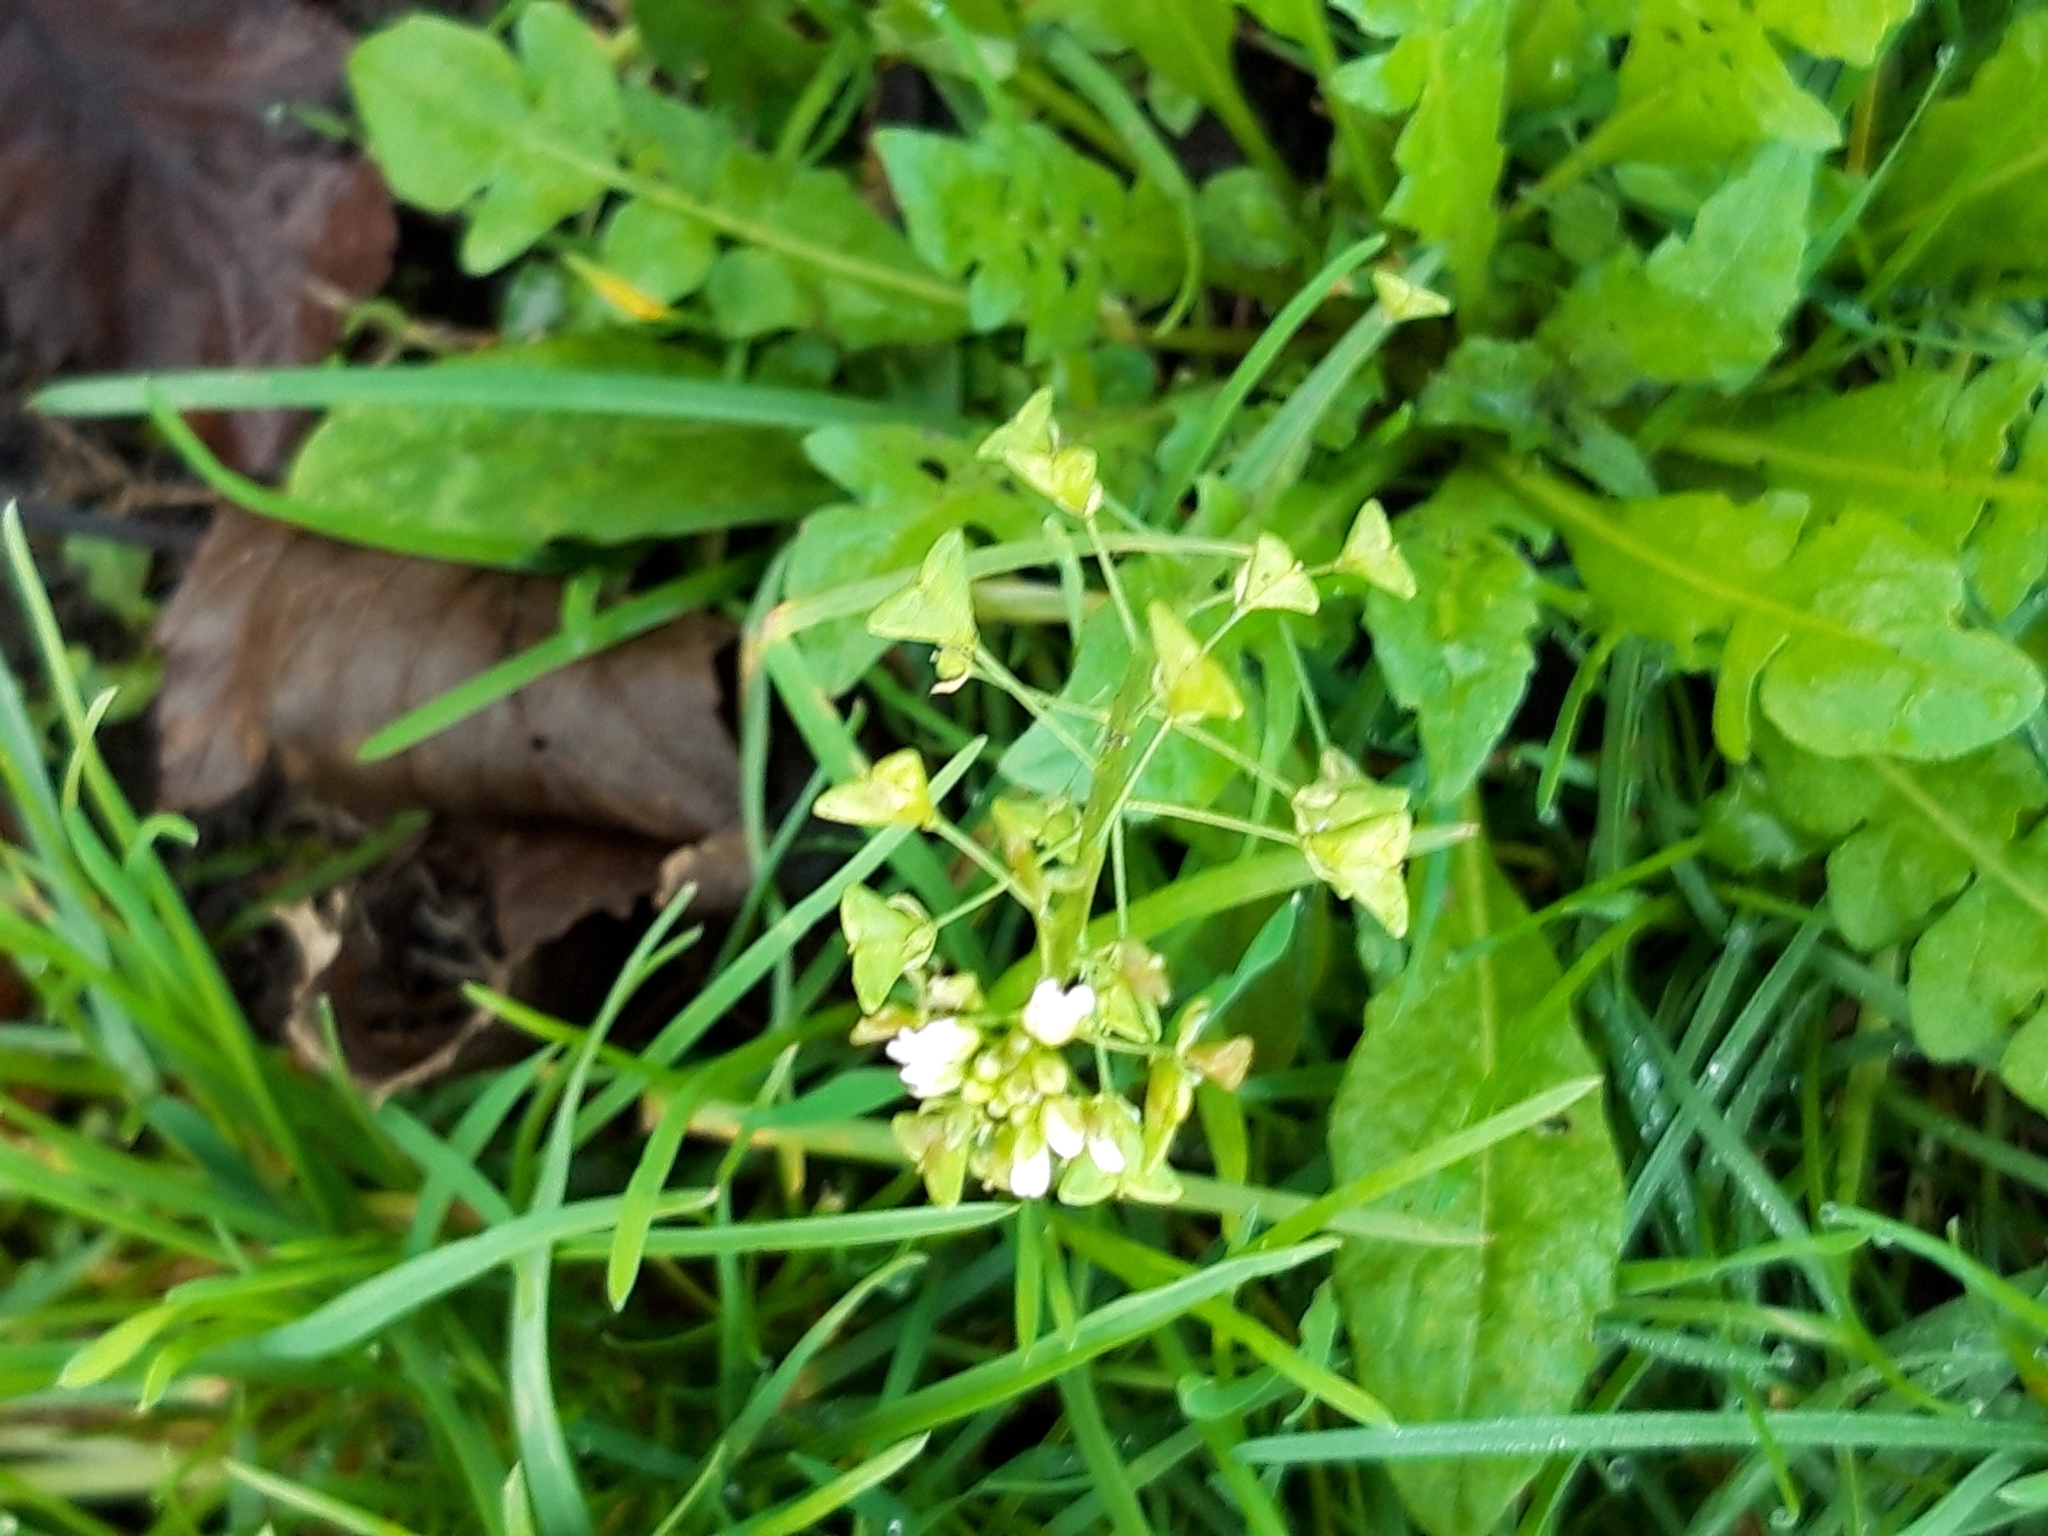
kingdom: Plantae
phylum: Tracheophyta
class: Magnoliopsida
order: Brassicales
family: Brassicaceae
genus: Capsella
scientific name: Capsella bursa-pastoris
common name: Shepherd's purse
